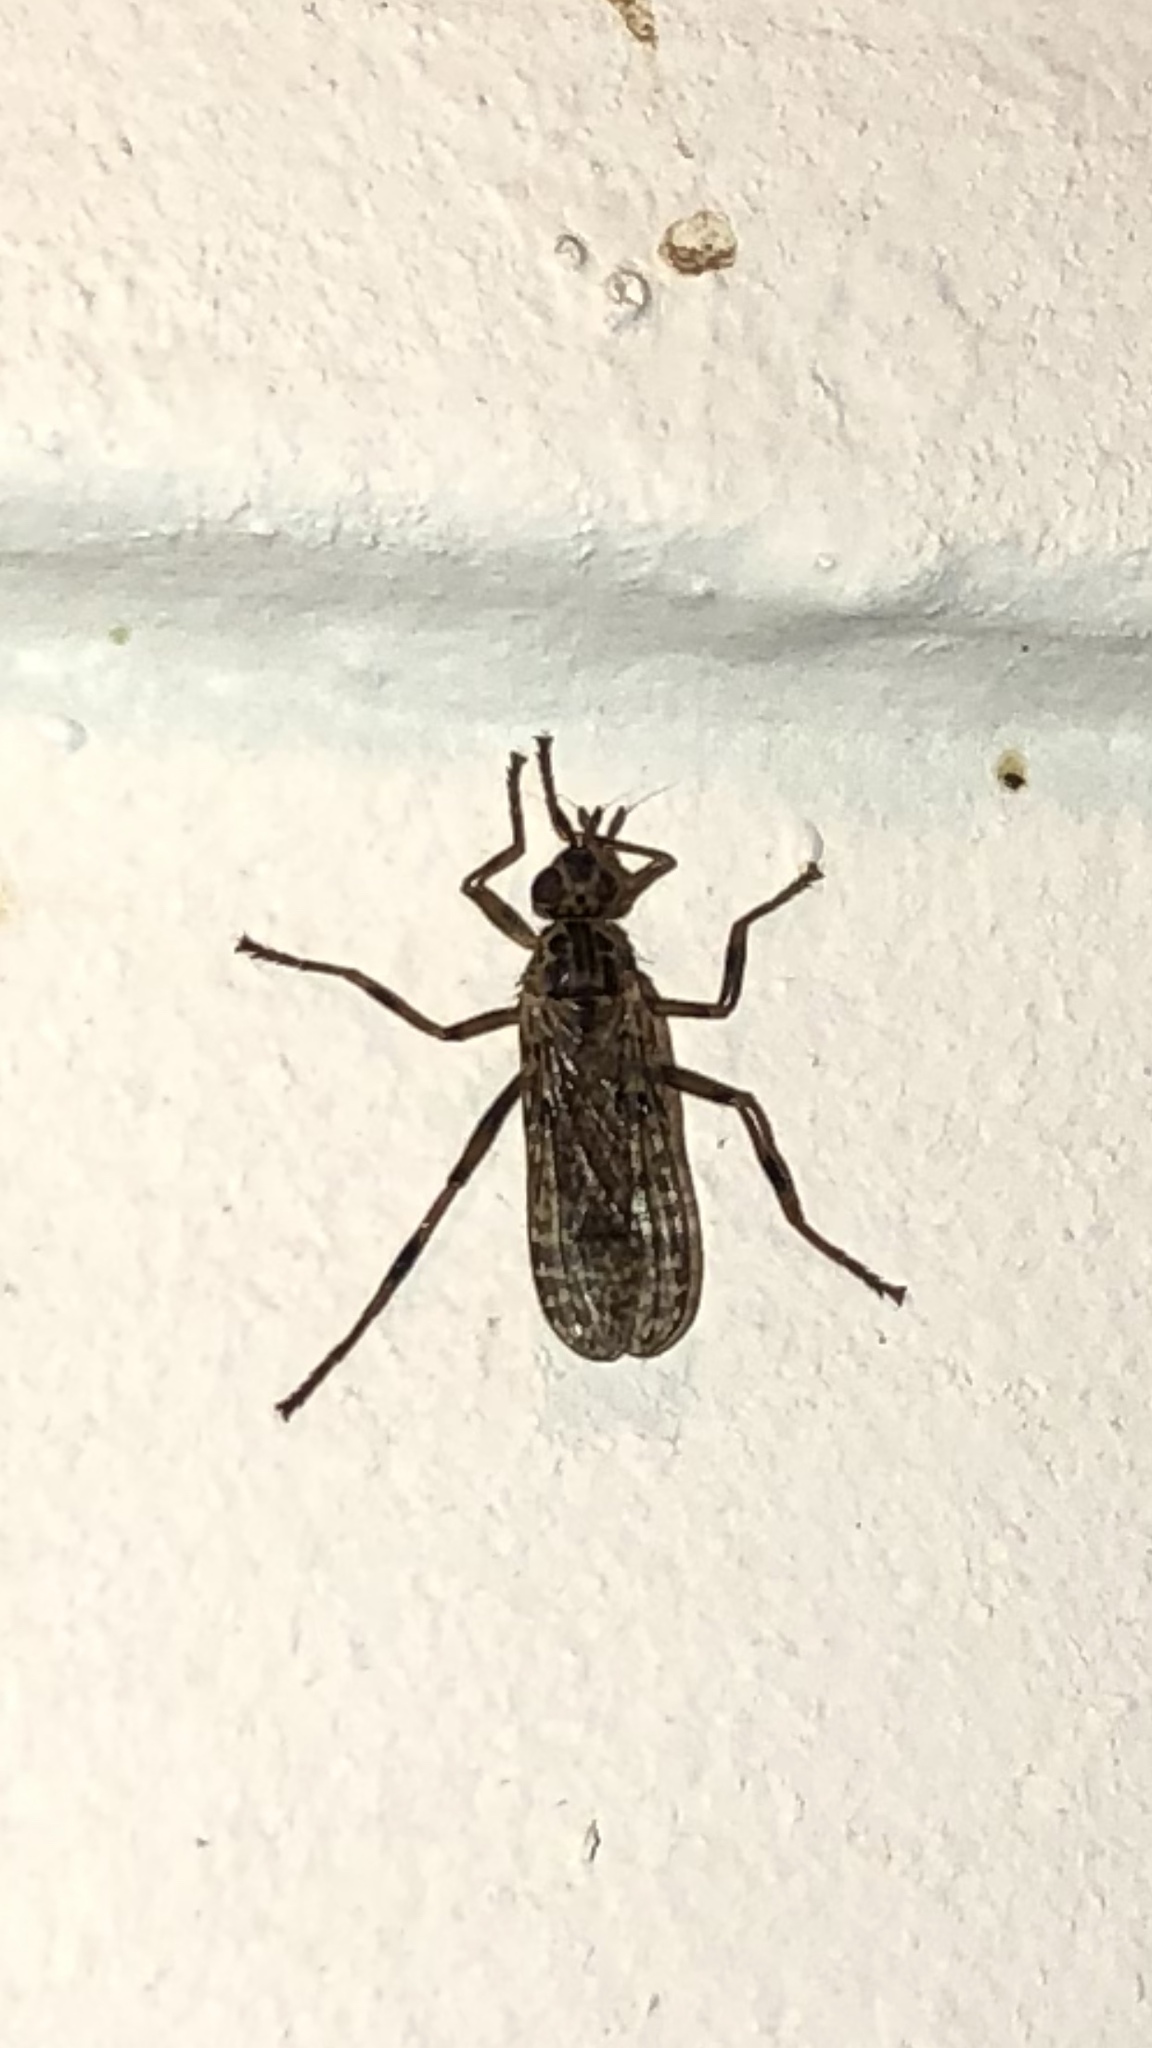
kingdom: Animalia
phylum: Arthropoda
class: Insecta
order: Diptera
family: Pyrgotidae
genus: Boreothrinax
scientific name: Boreothrinax
